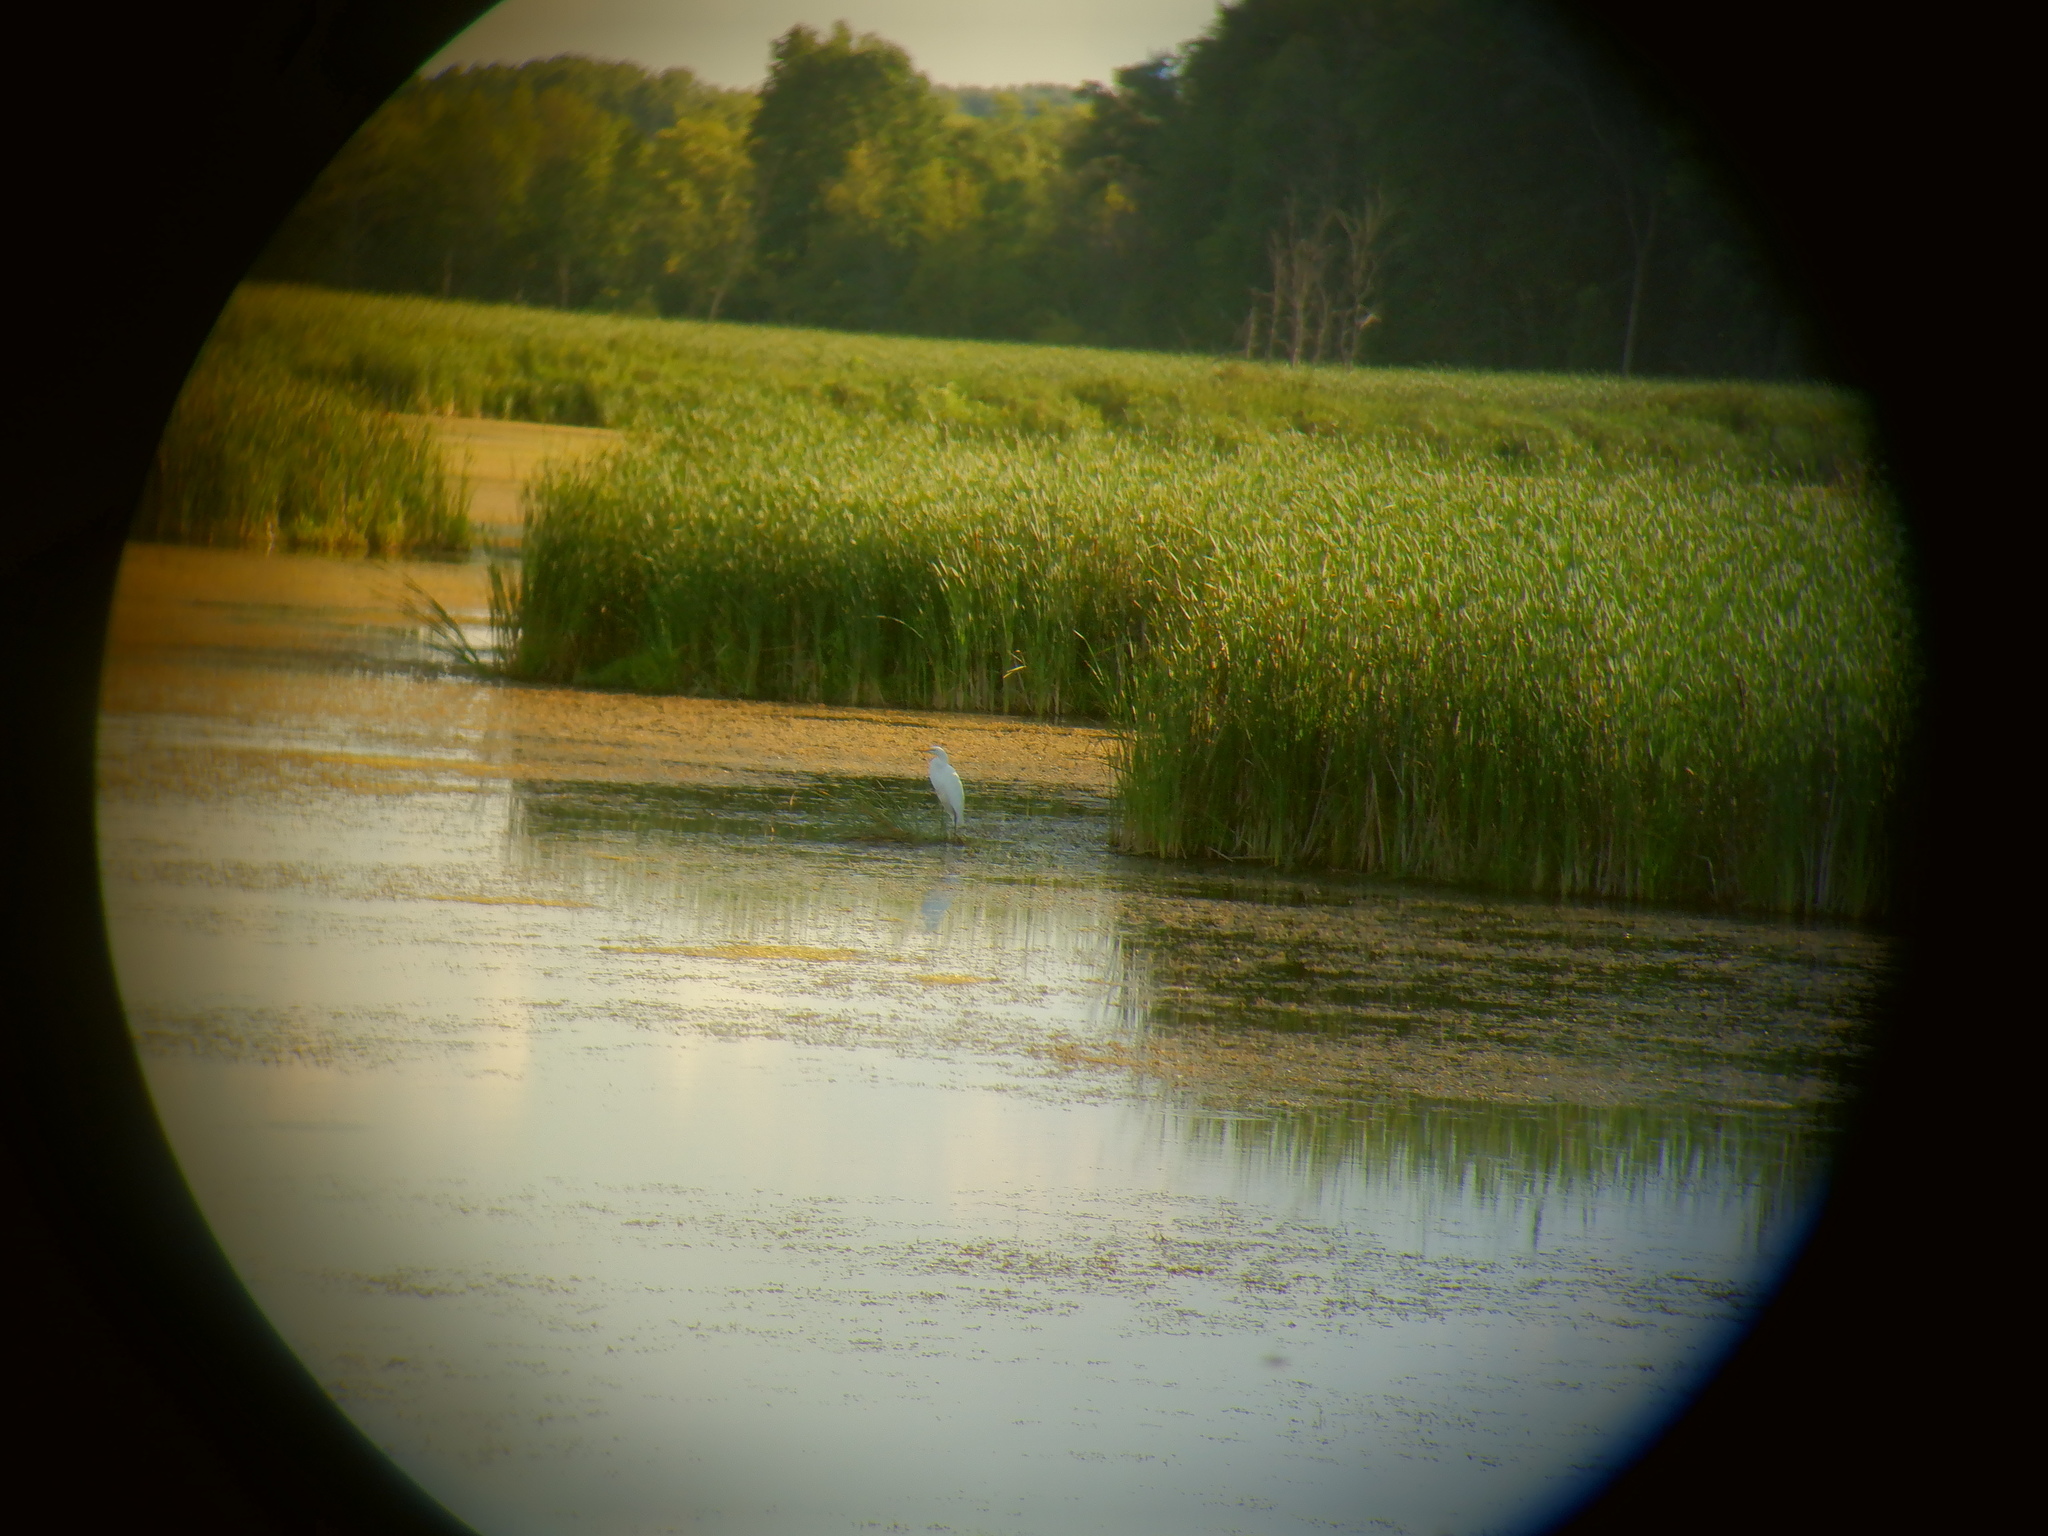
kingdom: Animalia
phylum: Chordata
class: Aves
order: Pelecaniformes
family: Ardeidae
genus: Ardea
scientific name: Ardea alba
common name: Great egret
